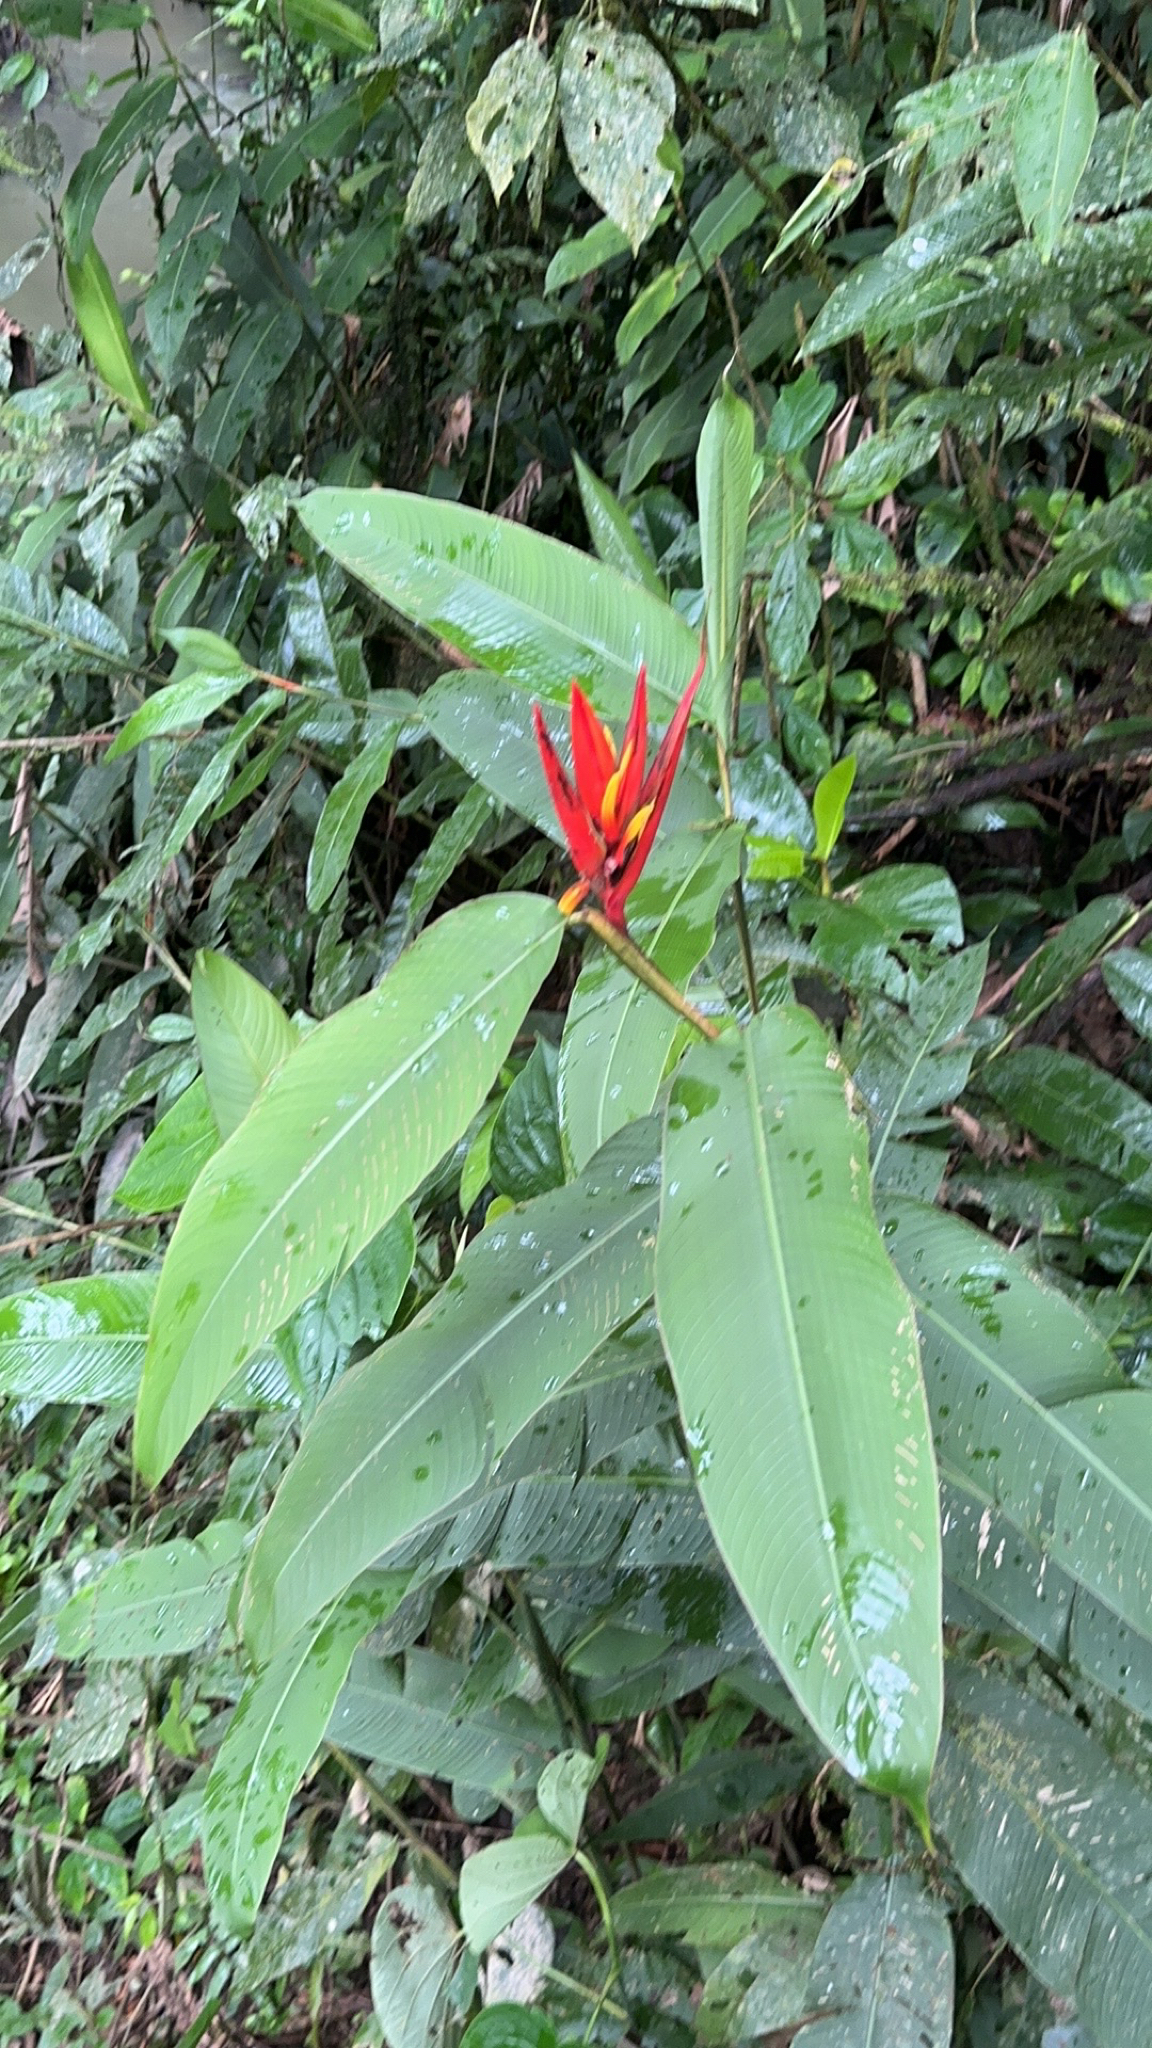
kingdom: Plantae
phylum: Tracheophyta
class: Liliopsida
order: Zingiberales
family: Heliconiaceae
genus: Heliconia
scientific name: Heliconia mathiasiae
